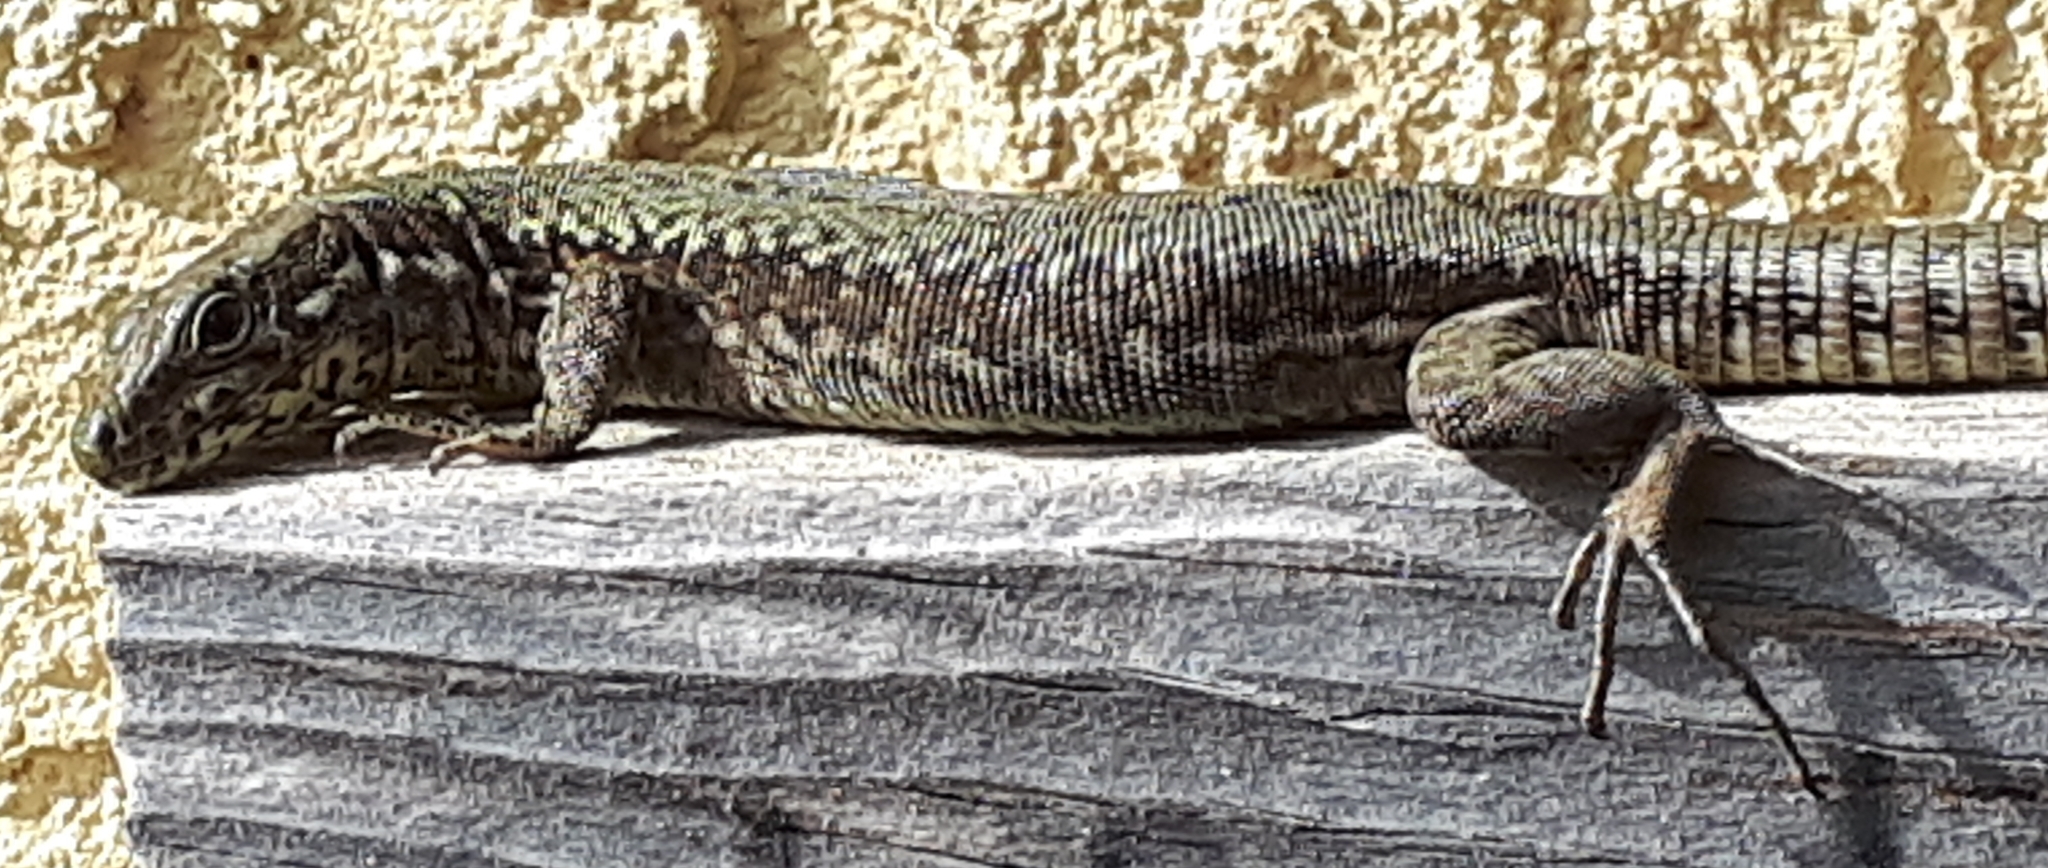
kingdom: Animalia
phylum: Chordata
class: Squamata
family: Lacertidae
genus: Podarcis
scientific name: Podarcis muralis
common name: Common wall lizard
